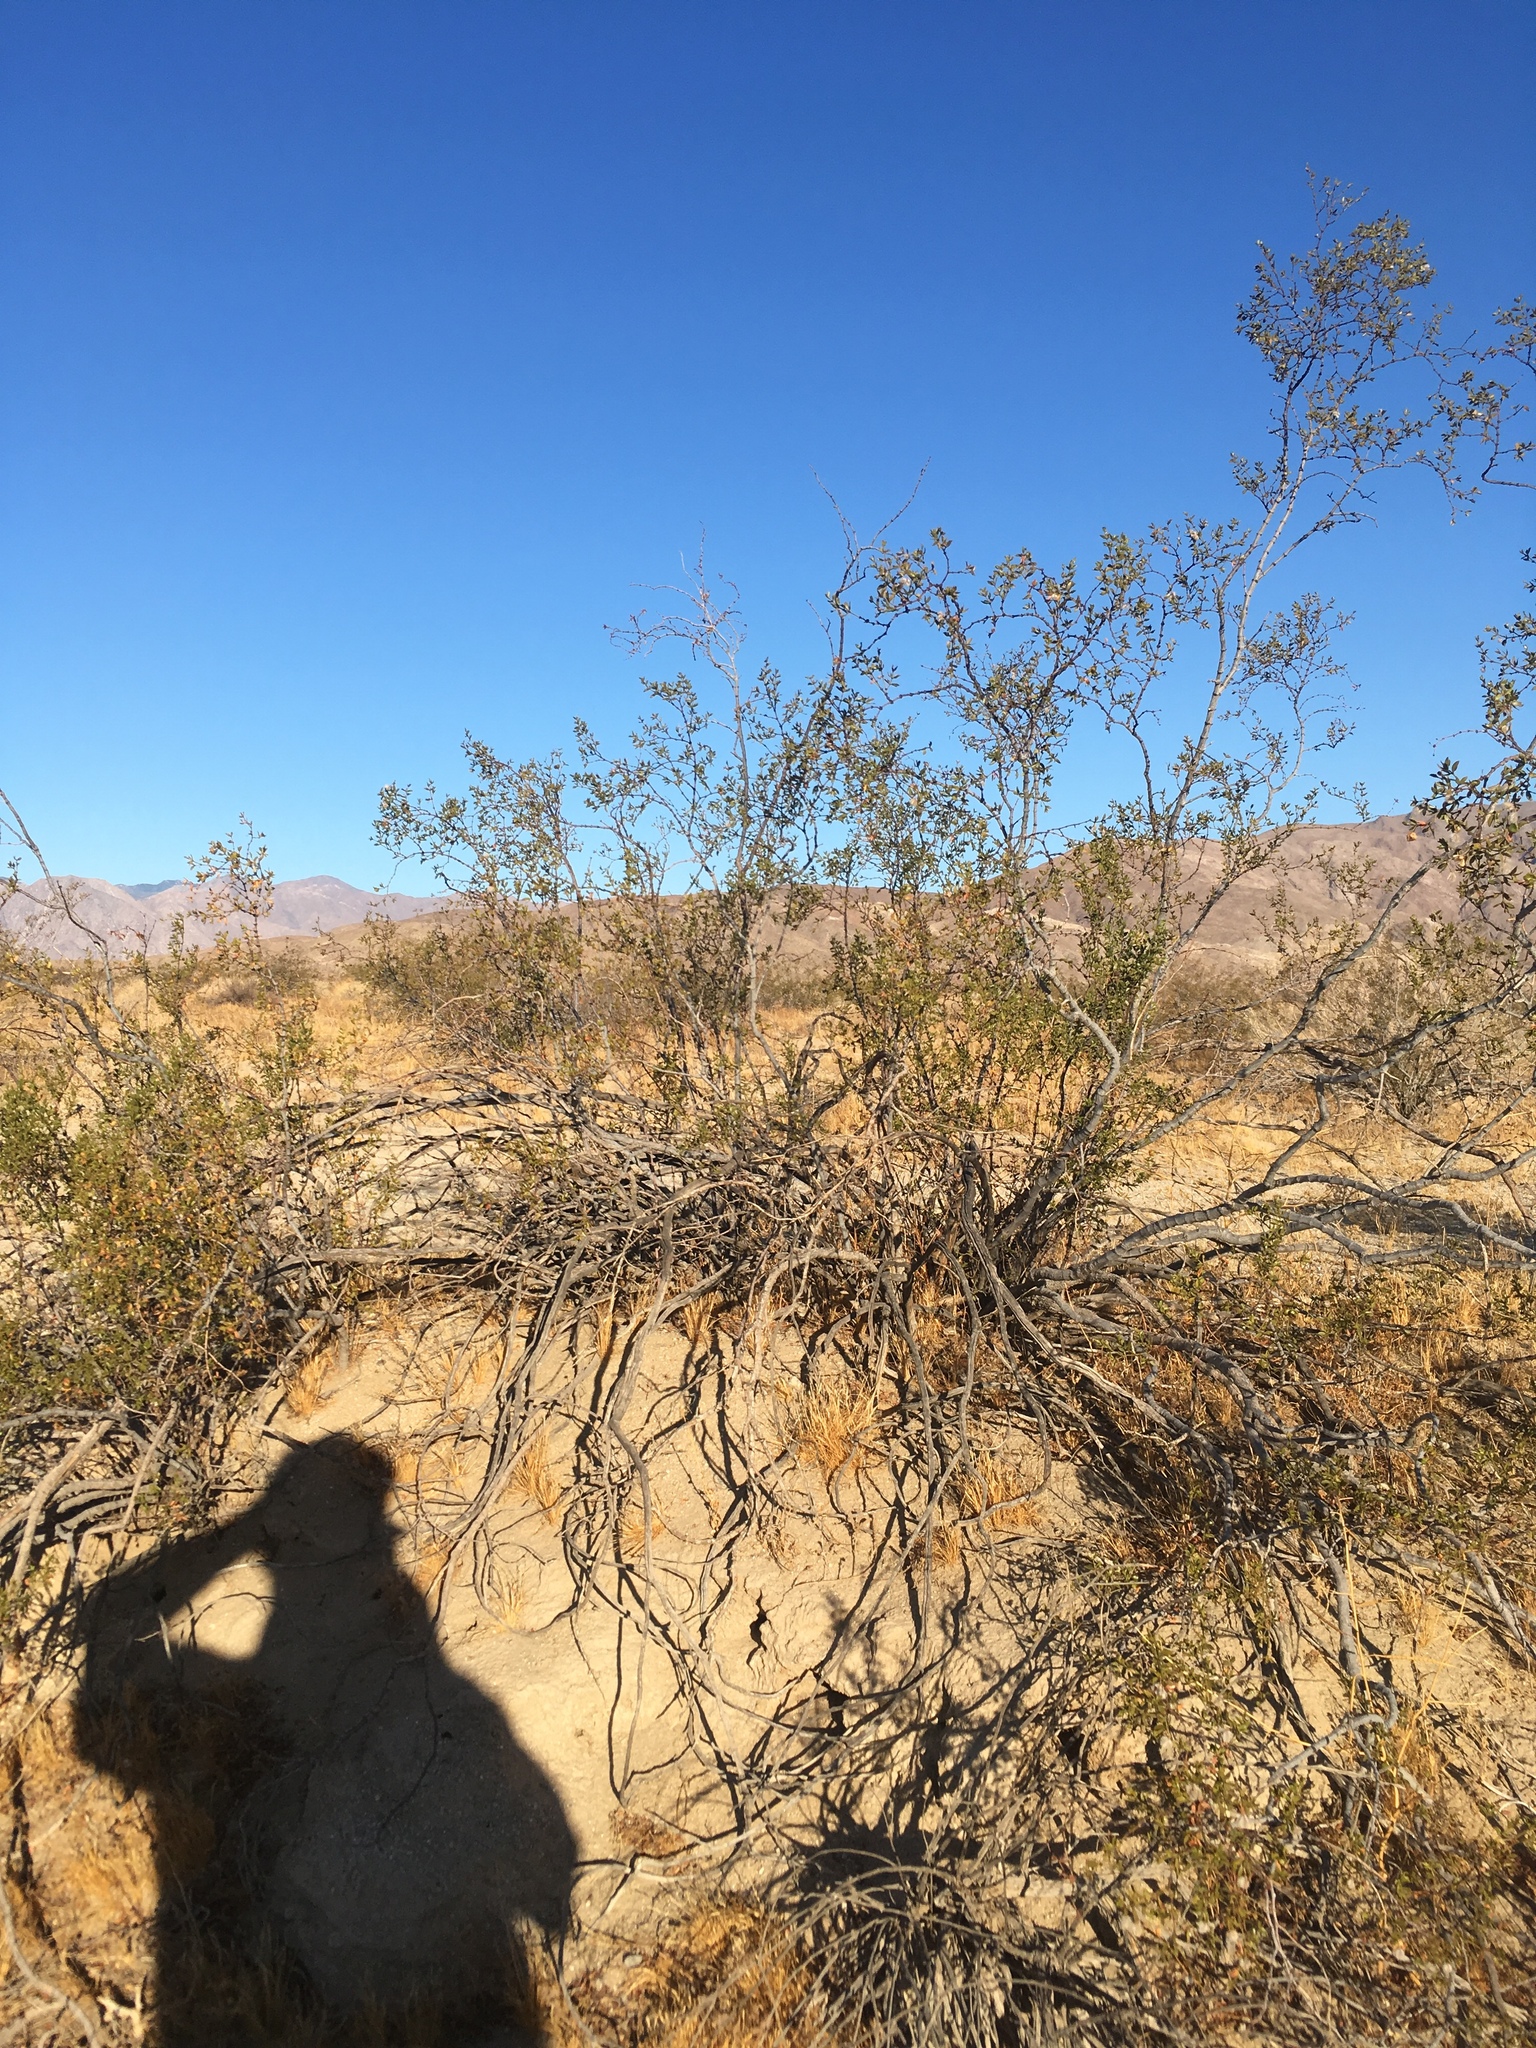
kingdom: Plantae
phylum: Tracheophyta
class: Magnoliopsida
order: Zygophyllales
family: Zygophyllaceae
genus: Larrea
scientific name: Larrea tridentata
